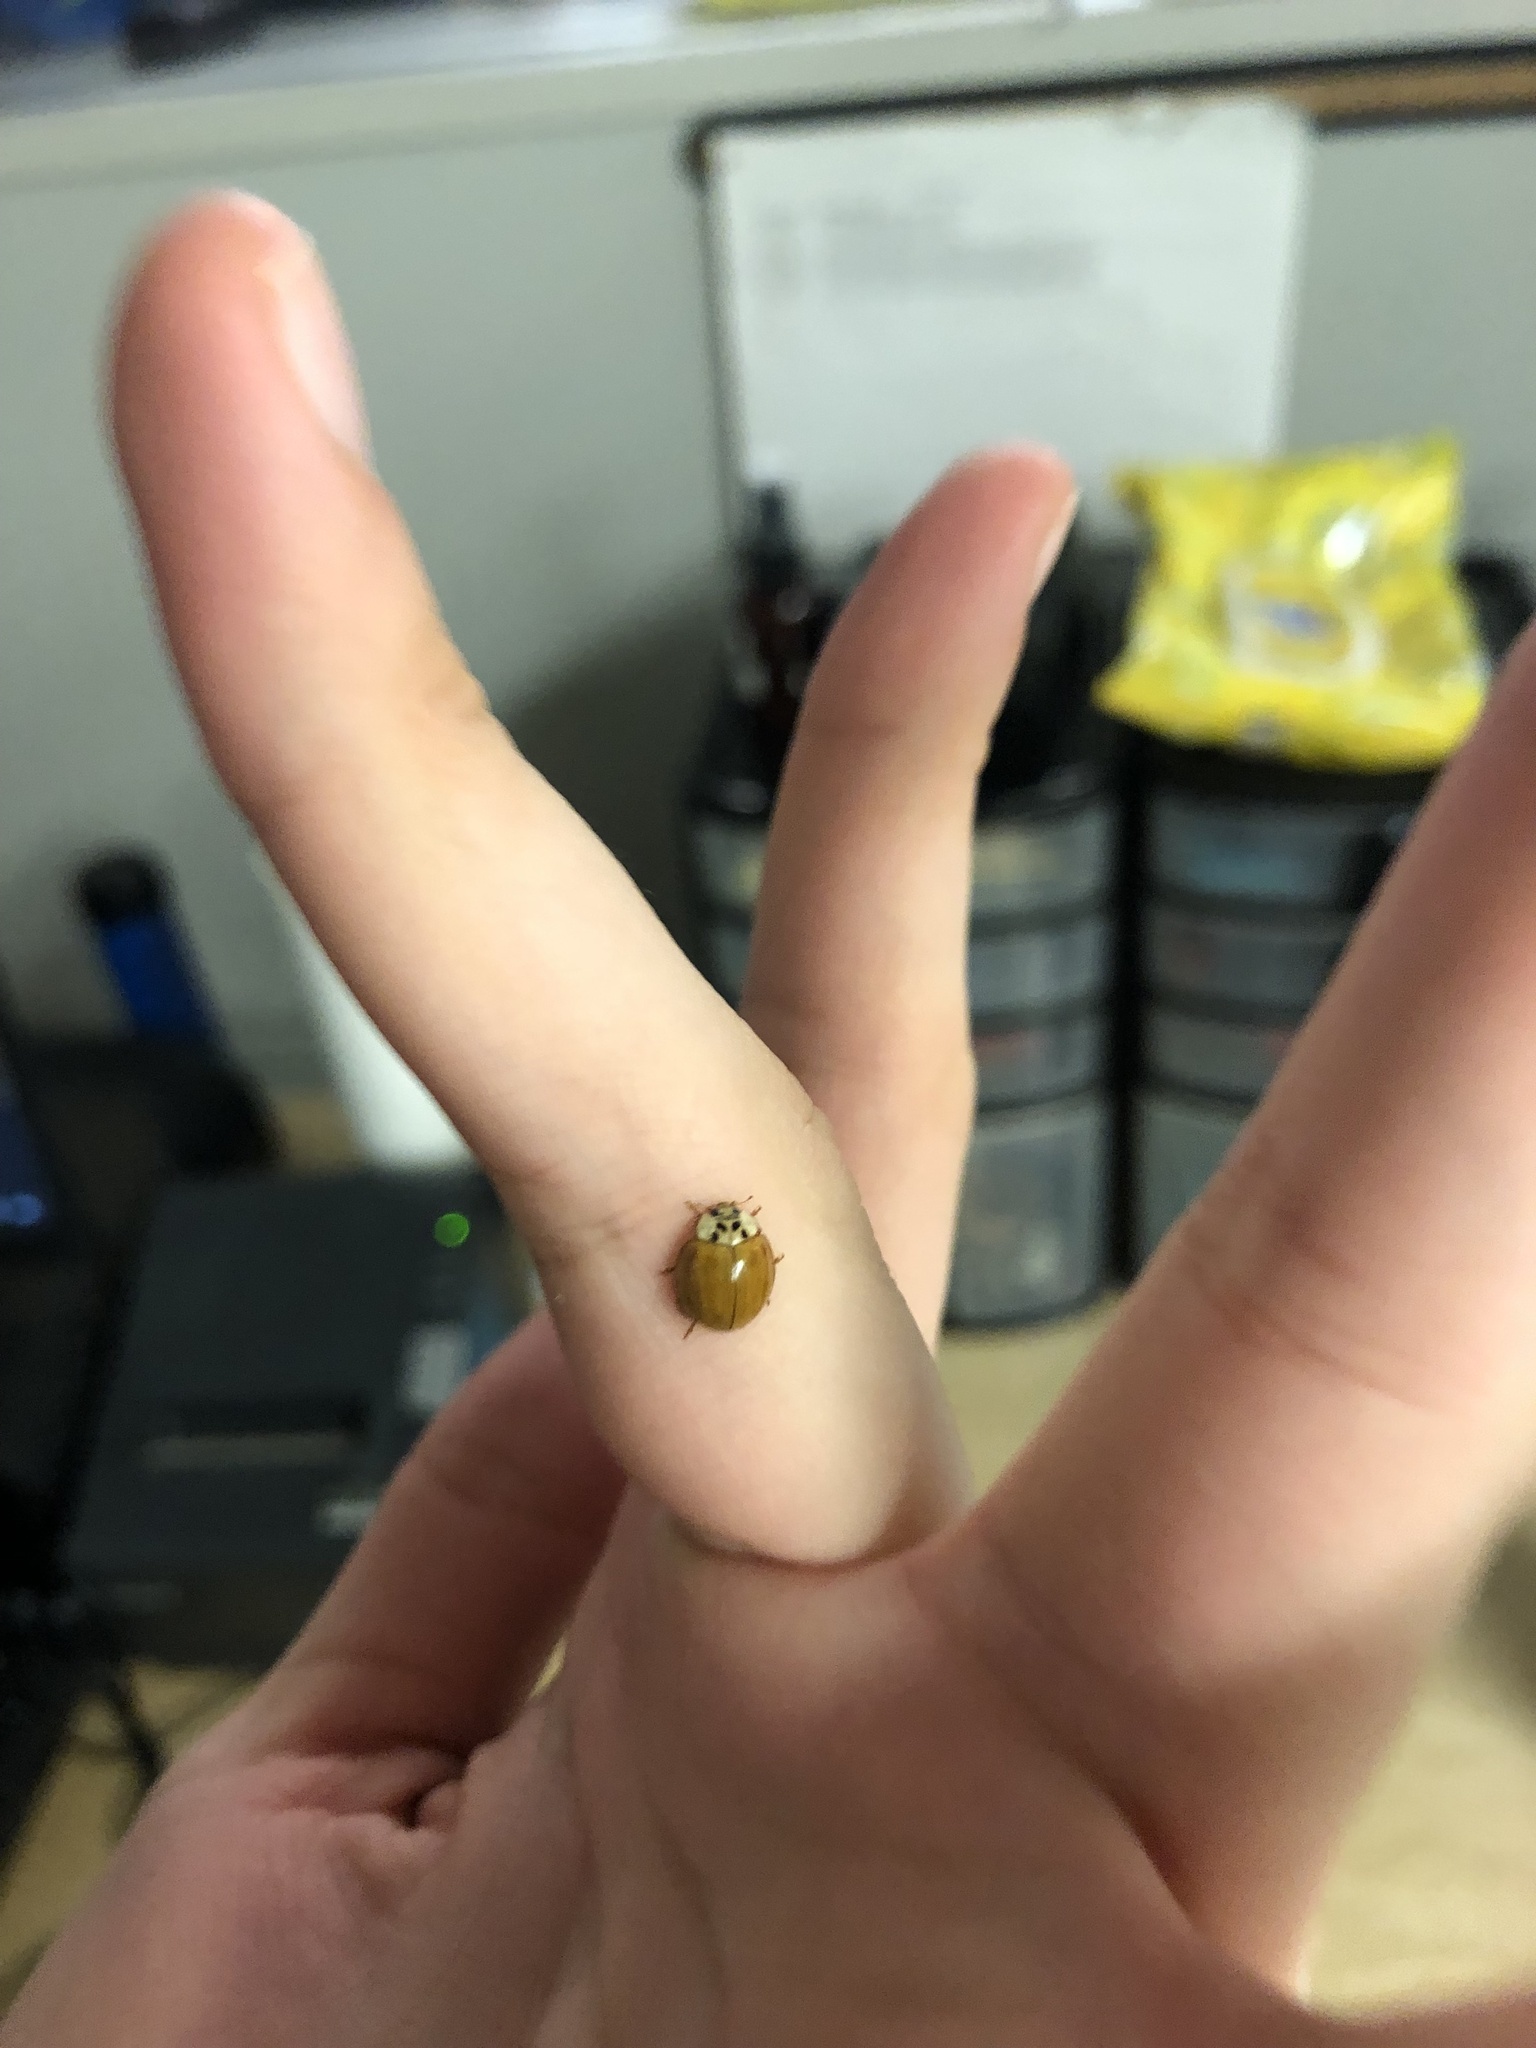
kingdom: Animalia
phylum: Arthropoda
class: Insecta
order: Coleoptera
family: Coccinellidae
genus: Harmonia
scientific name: Harmonia axyridis
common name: Harlequin ladybird
